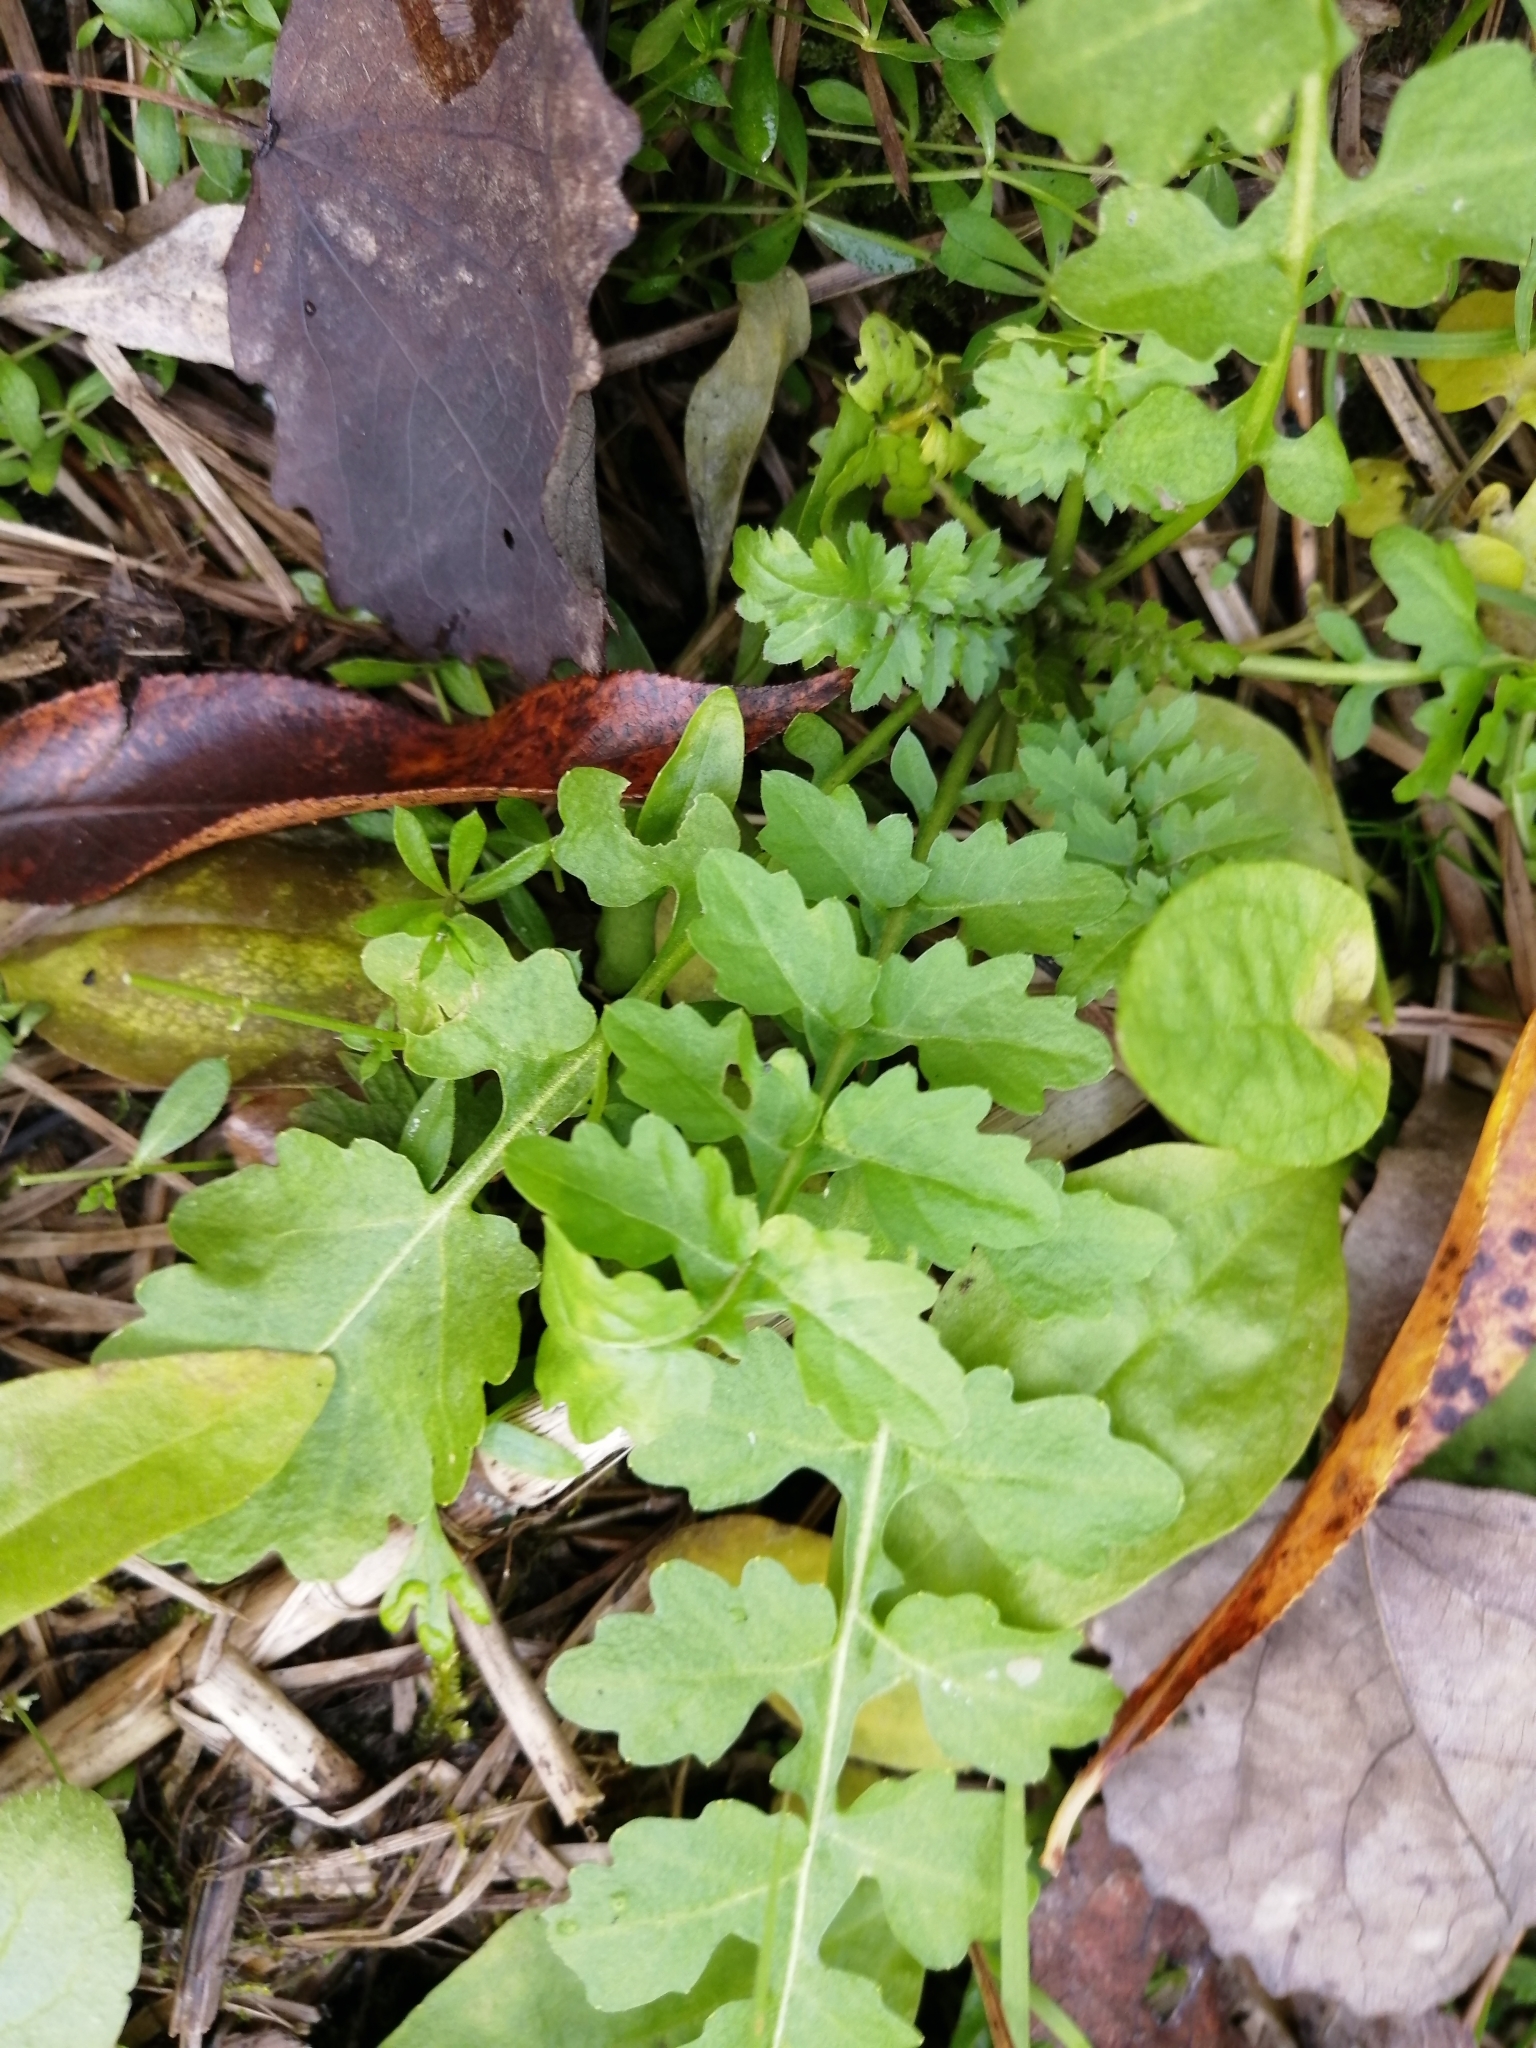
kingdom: Plantae
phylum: Tracheophyta
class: Magnoliopsida
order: Brassicales
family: Brassicaceae
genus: Rorippa
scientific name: Rorippa palustris
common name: Marsh yellow-cress
